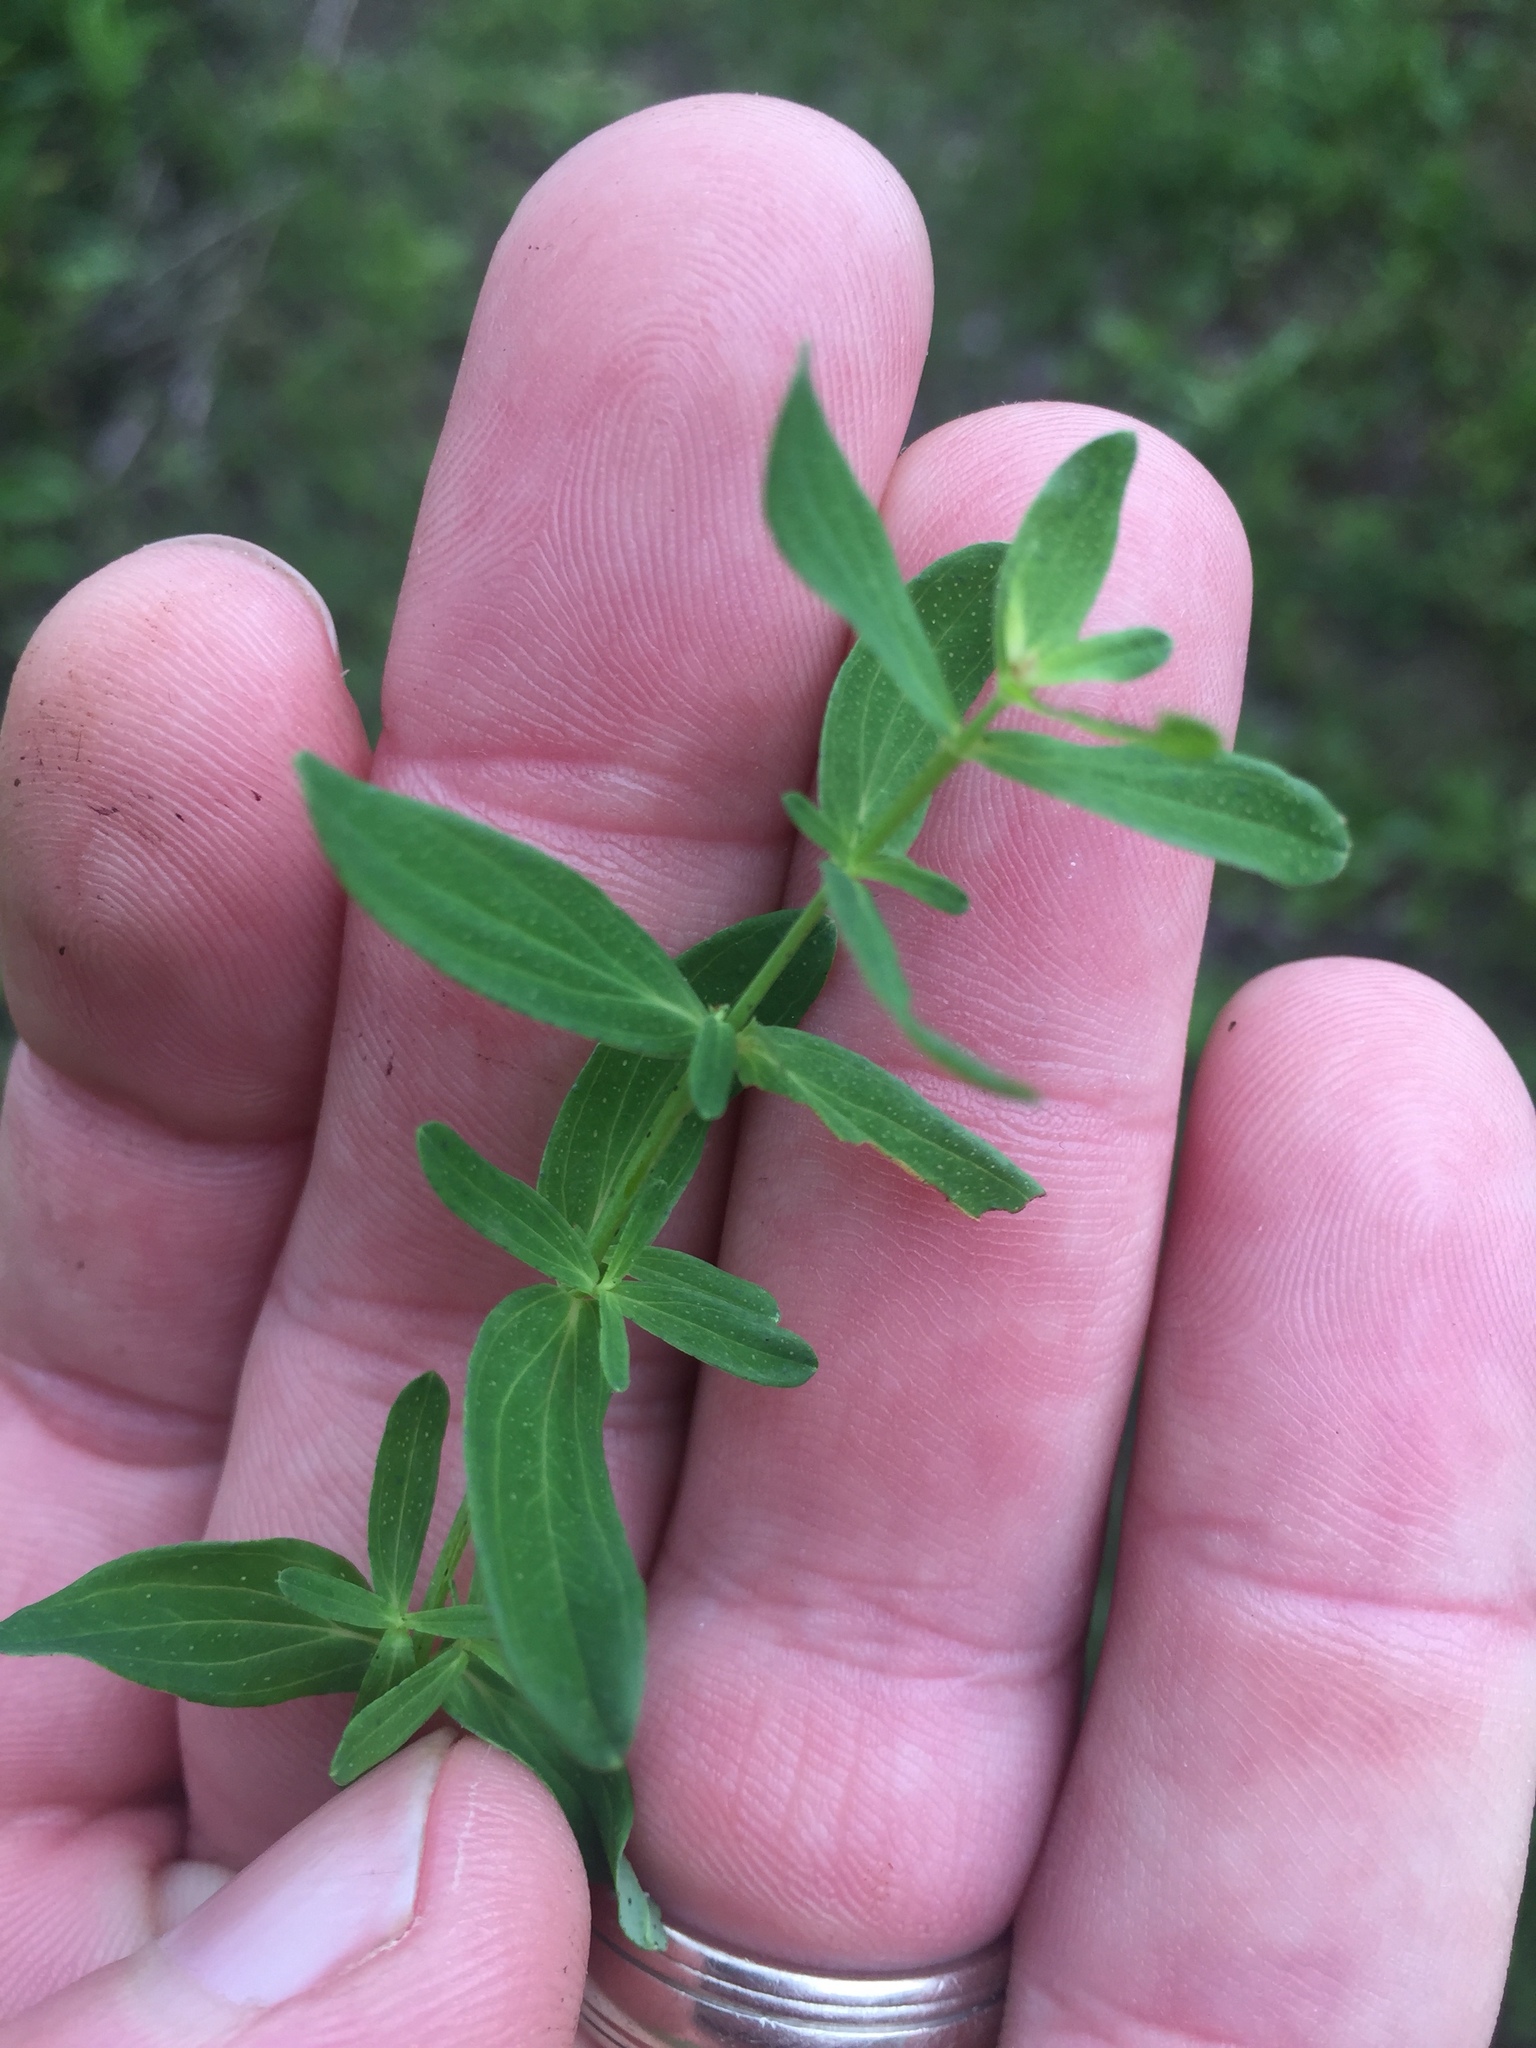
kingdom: Plantae
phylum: Tracheophyta
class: Magnoliopsida
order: Malpighiales
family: Hypericaceae
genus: Hypericum
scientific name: Hypericum perforatum
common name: Common st. johnswort
